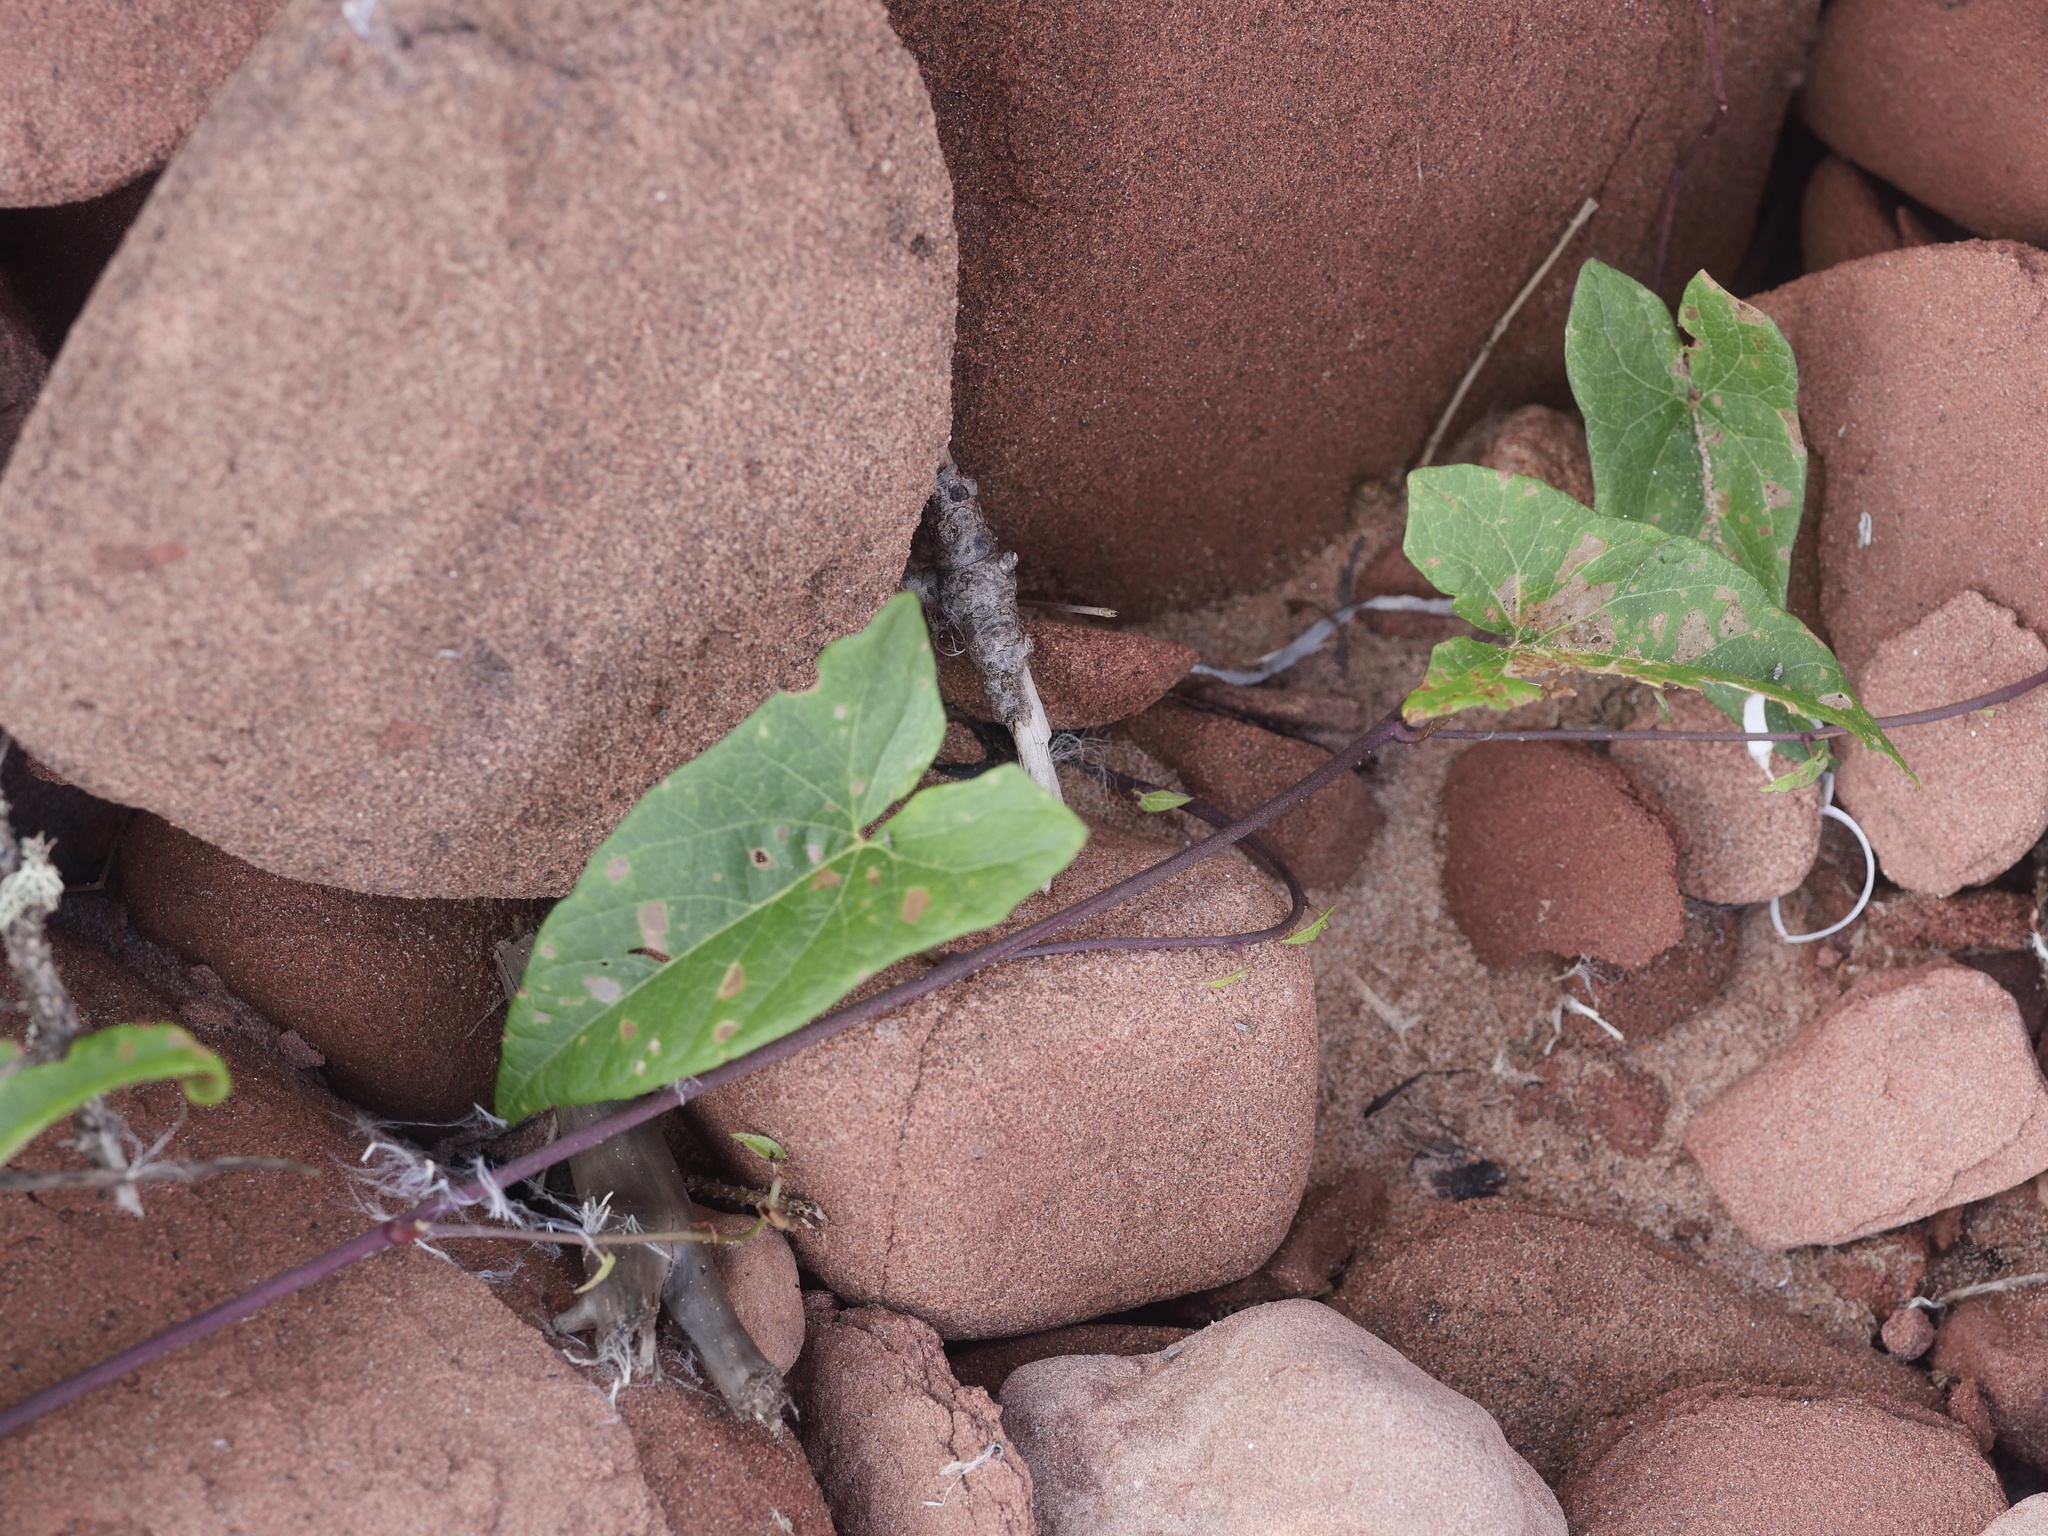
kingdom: Plantae
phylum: Tracheophyta
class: Magnoliopsida
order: Solanales
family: Convolvulaceae
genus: Calystegia
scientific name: Calystegia sepium
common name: Hedge bindweed
